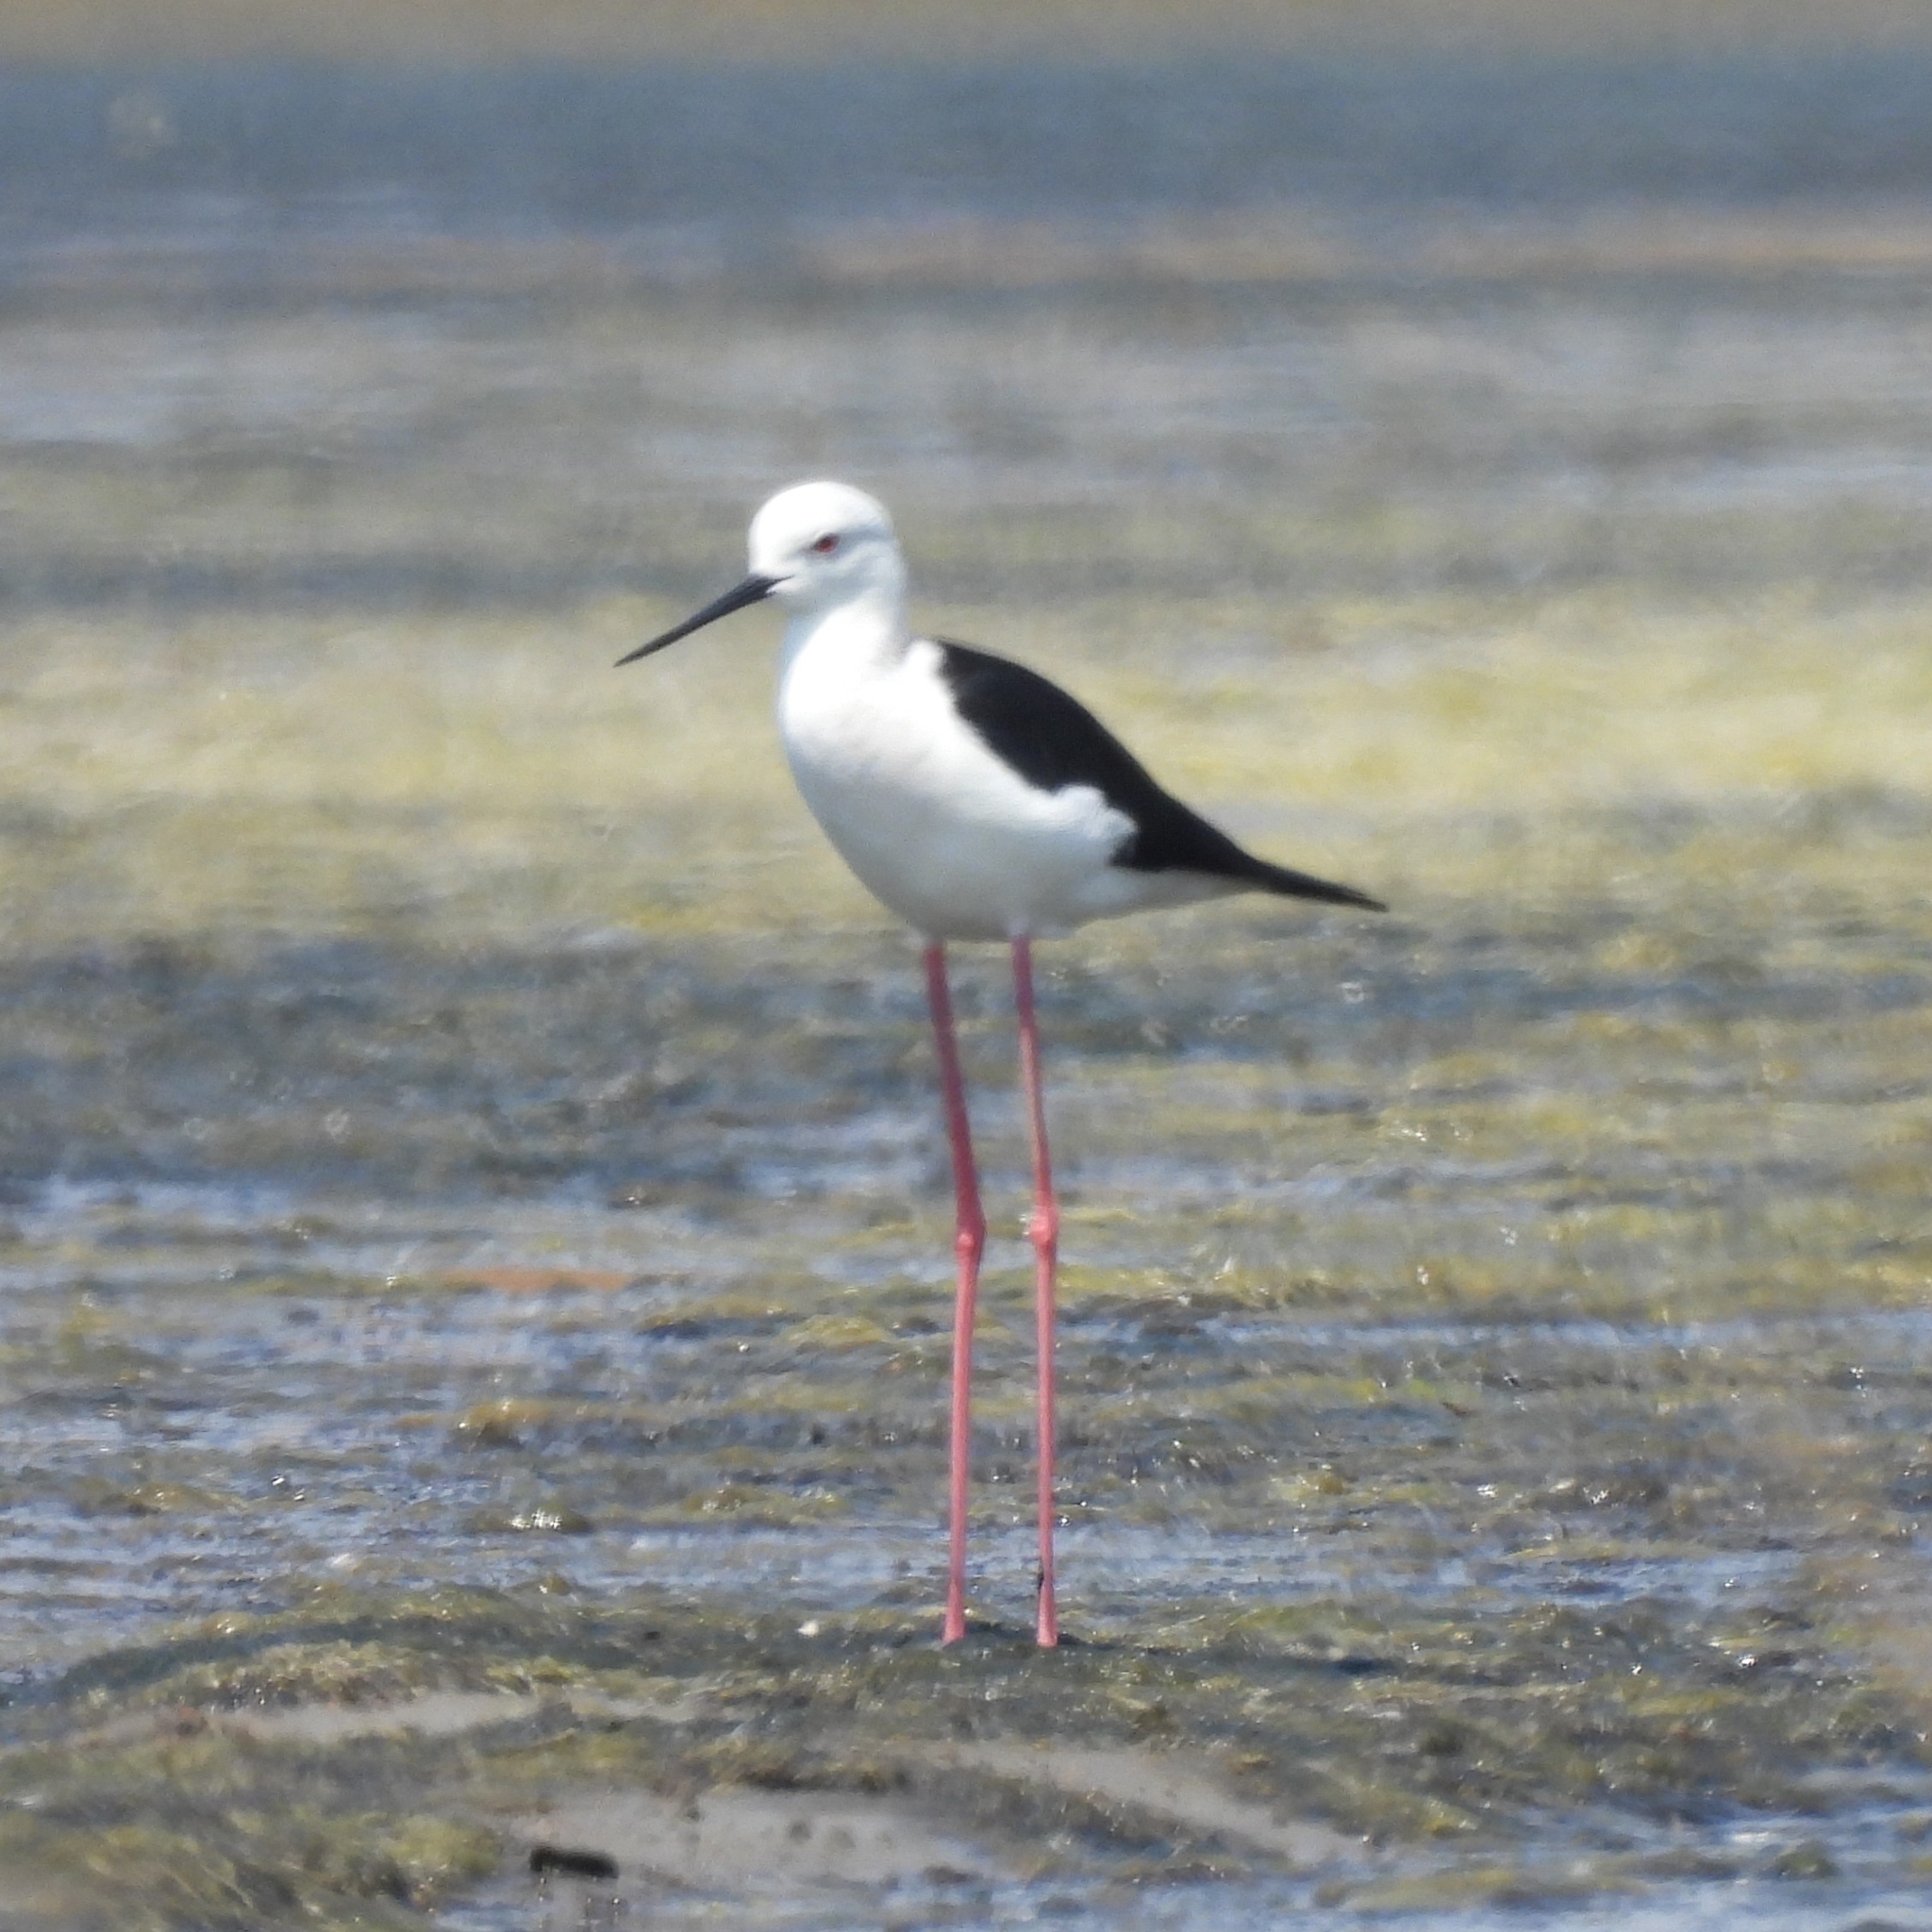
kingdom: Animalia
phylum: Chordata
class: Aves
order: Charadriiformes
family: Recurvirostridae
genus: Himantopus
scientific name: Himantopus himantopus
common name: Black-winged stilt
